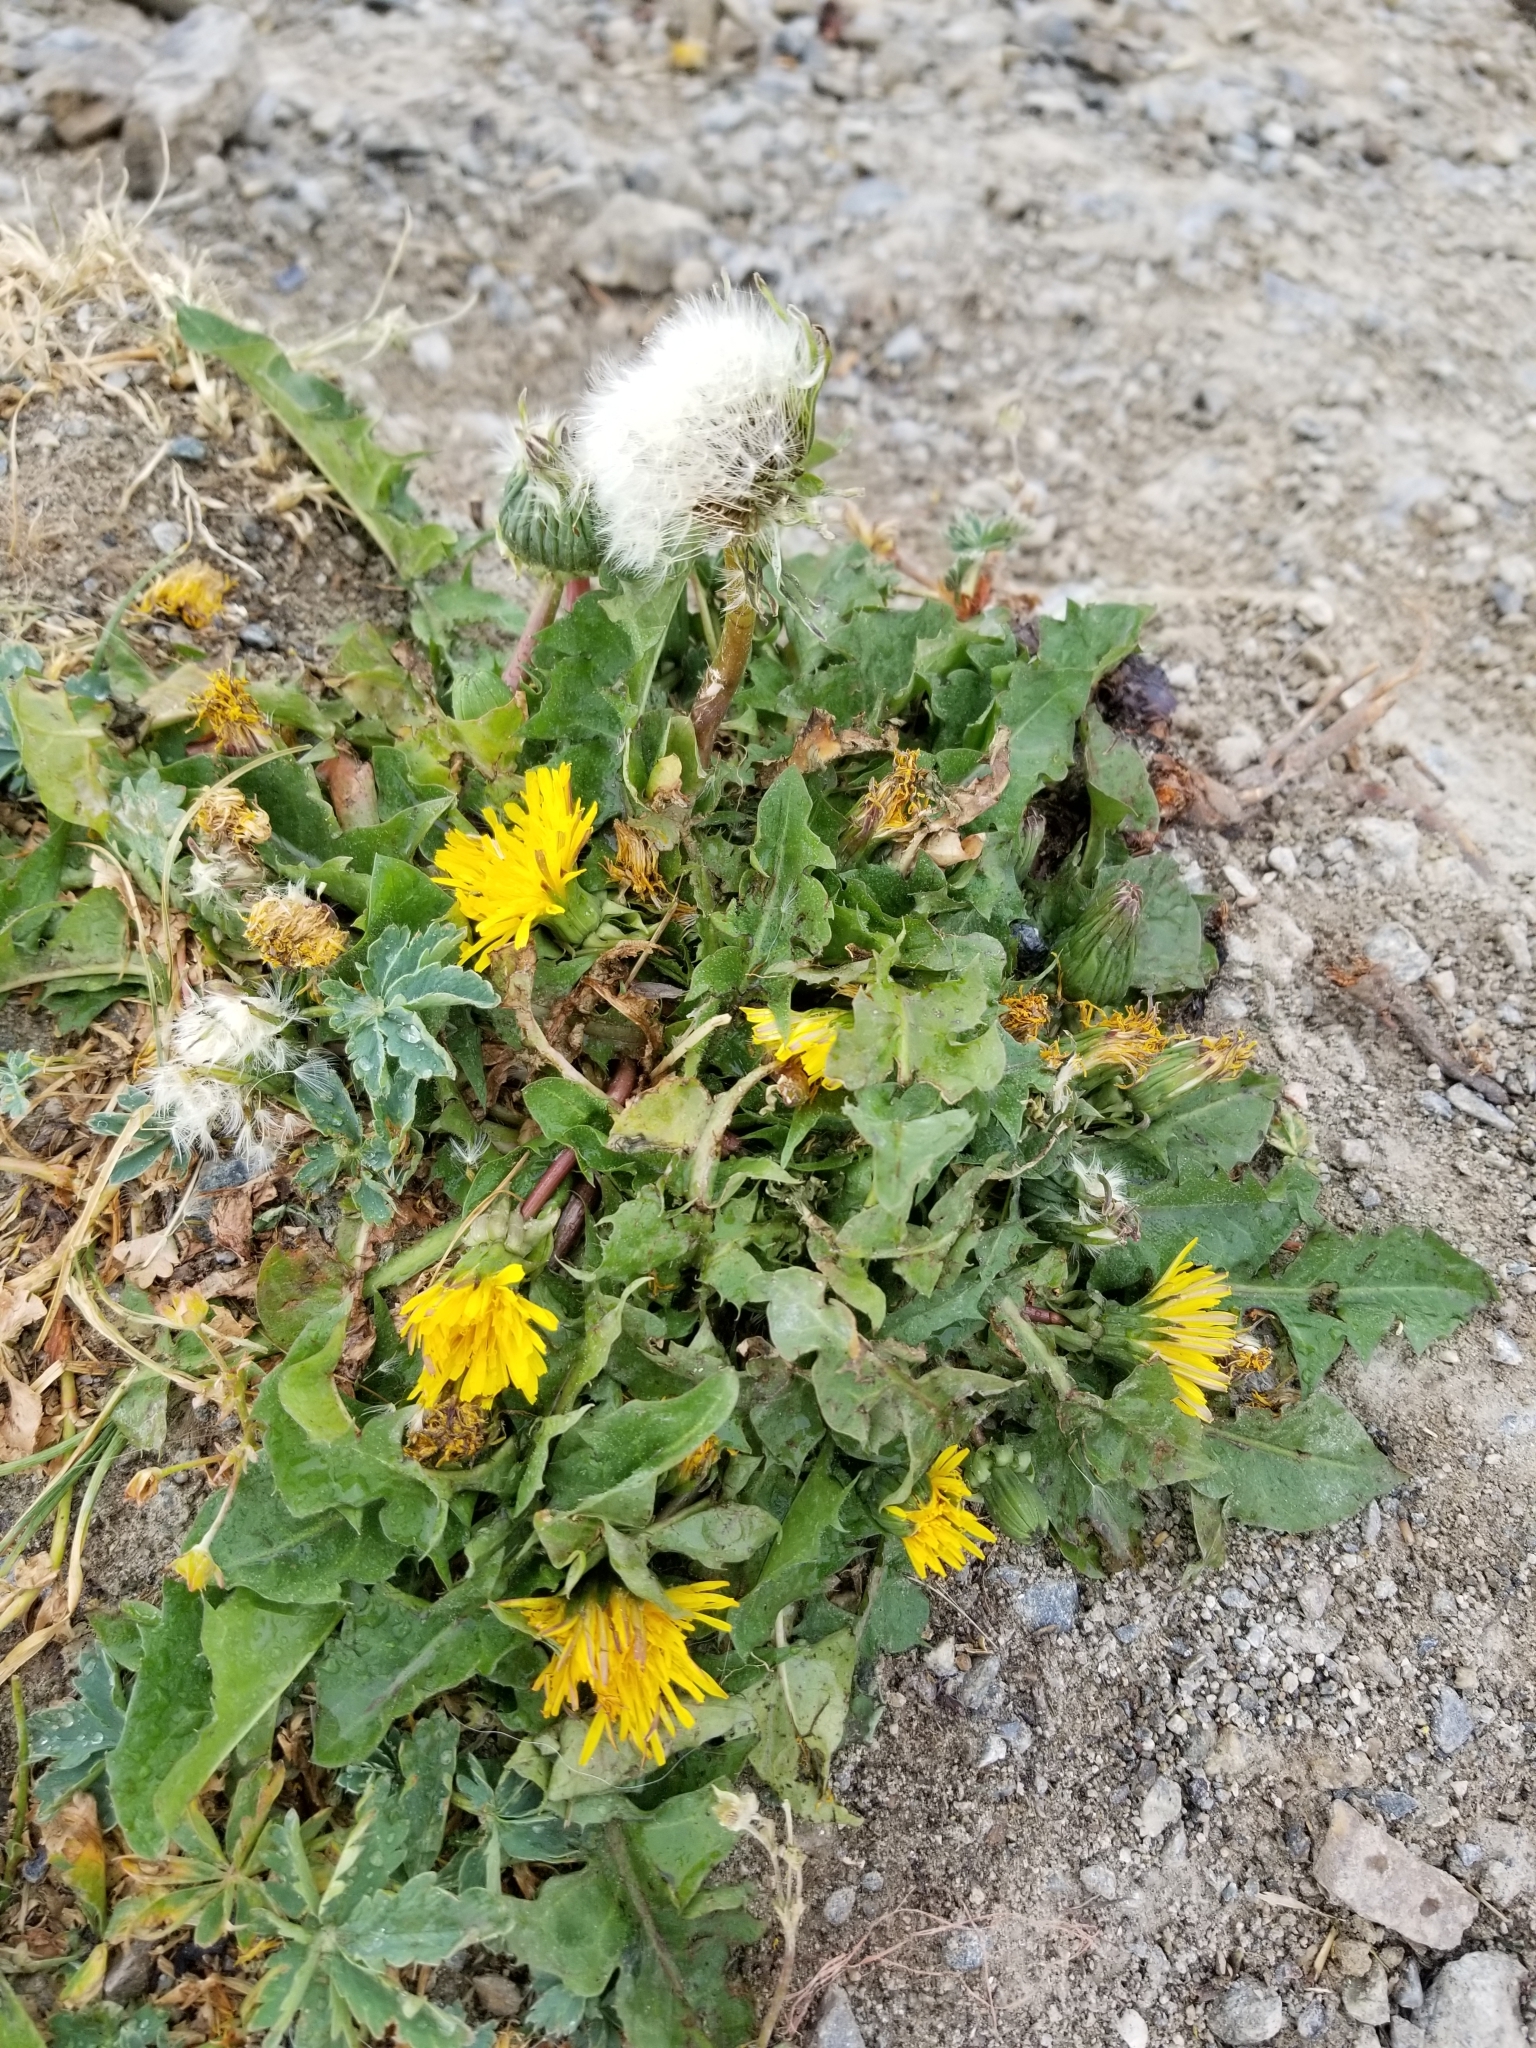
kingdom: Plantae
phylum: Tracheophyta
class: Magnoliopsida
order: Asterales
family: Asteraceae
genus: Taraxacum
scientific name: Taraxacum officinale
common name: Common dandelion
